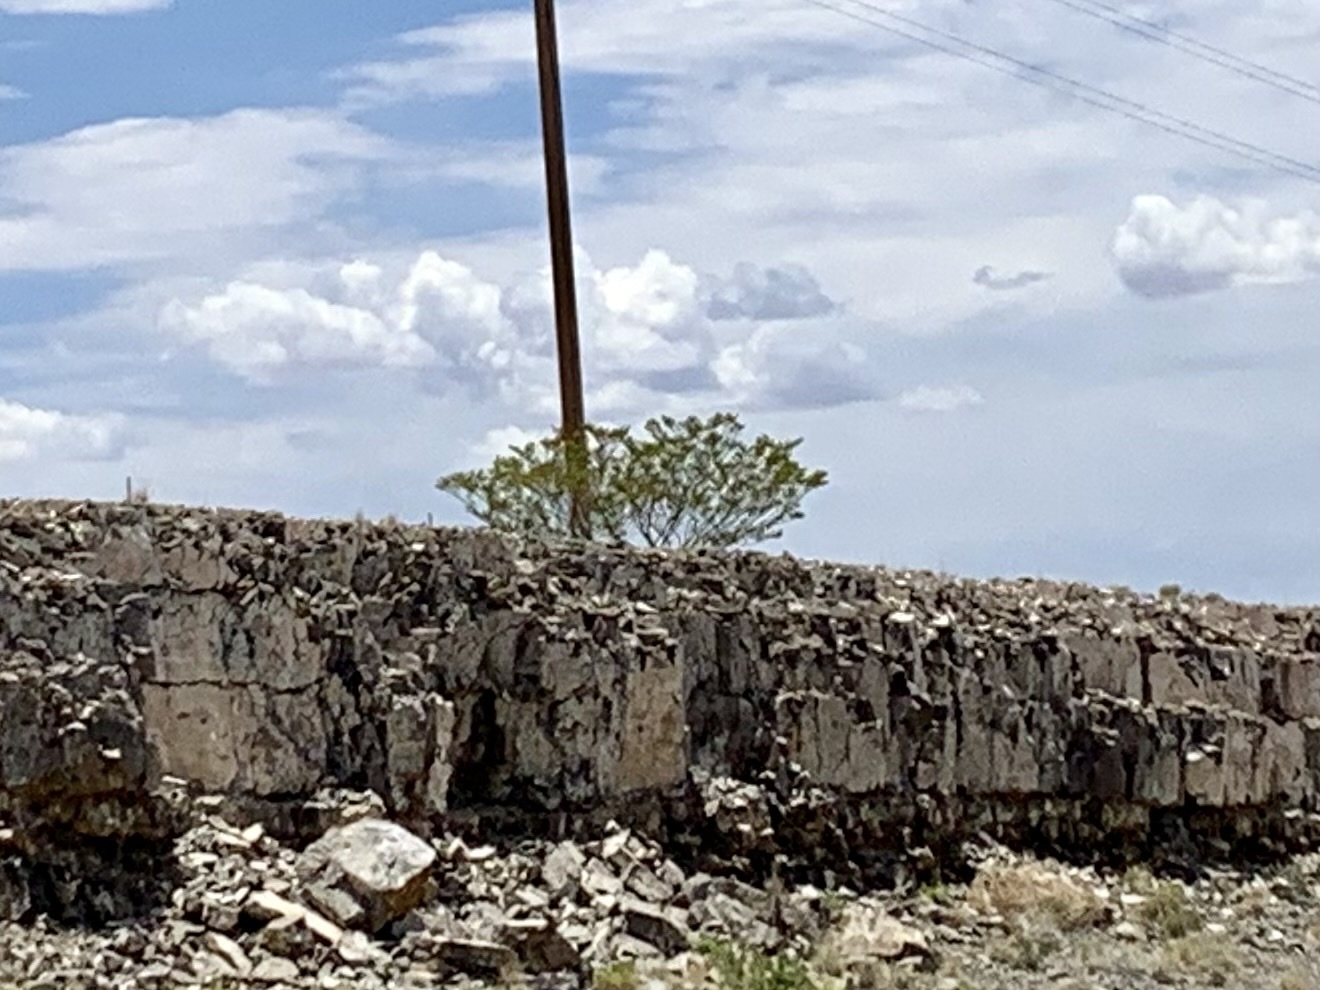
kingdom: Plantae
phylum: Tracheophyta
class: Magnoliopsida
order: Zygophyllales
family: Zygophyllaceae
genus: Larrea
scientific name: Larrea tridentata
